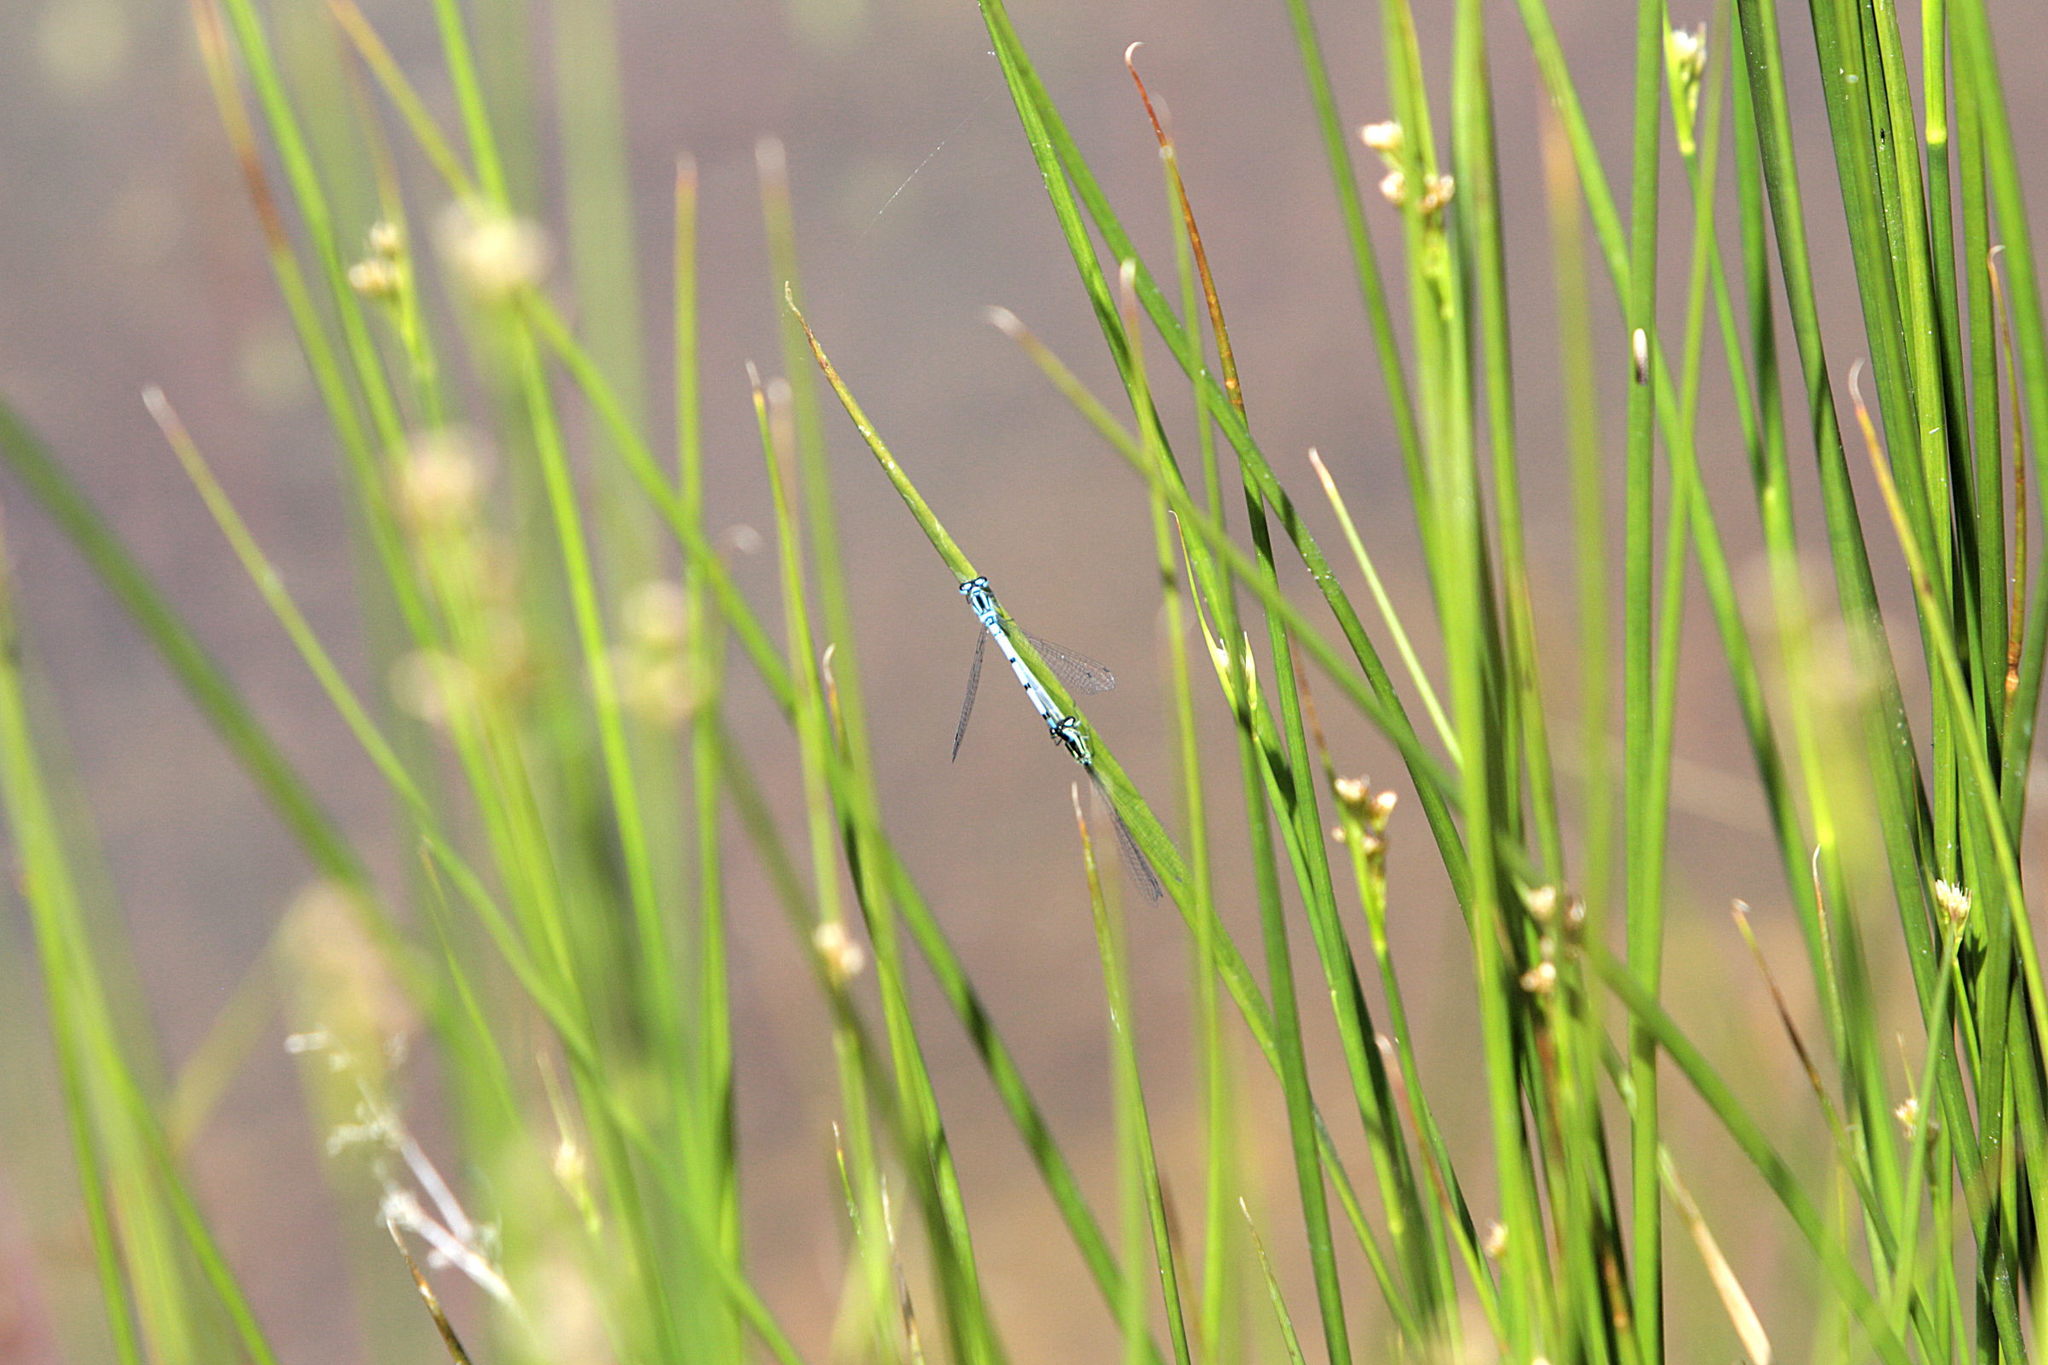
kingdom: Animalia
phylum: Arthropoda
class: Insecta
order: Odonata
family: Coenagrionidae
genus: Coenagrion
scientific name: Coenagrion puella
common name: Azure damselfly
